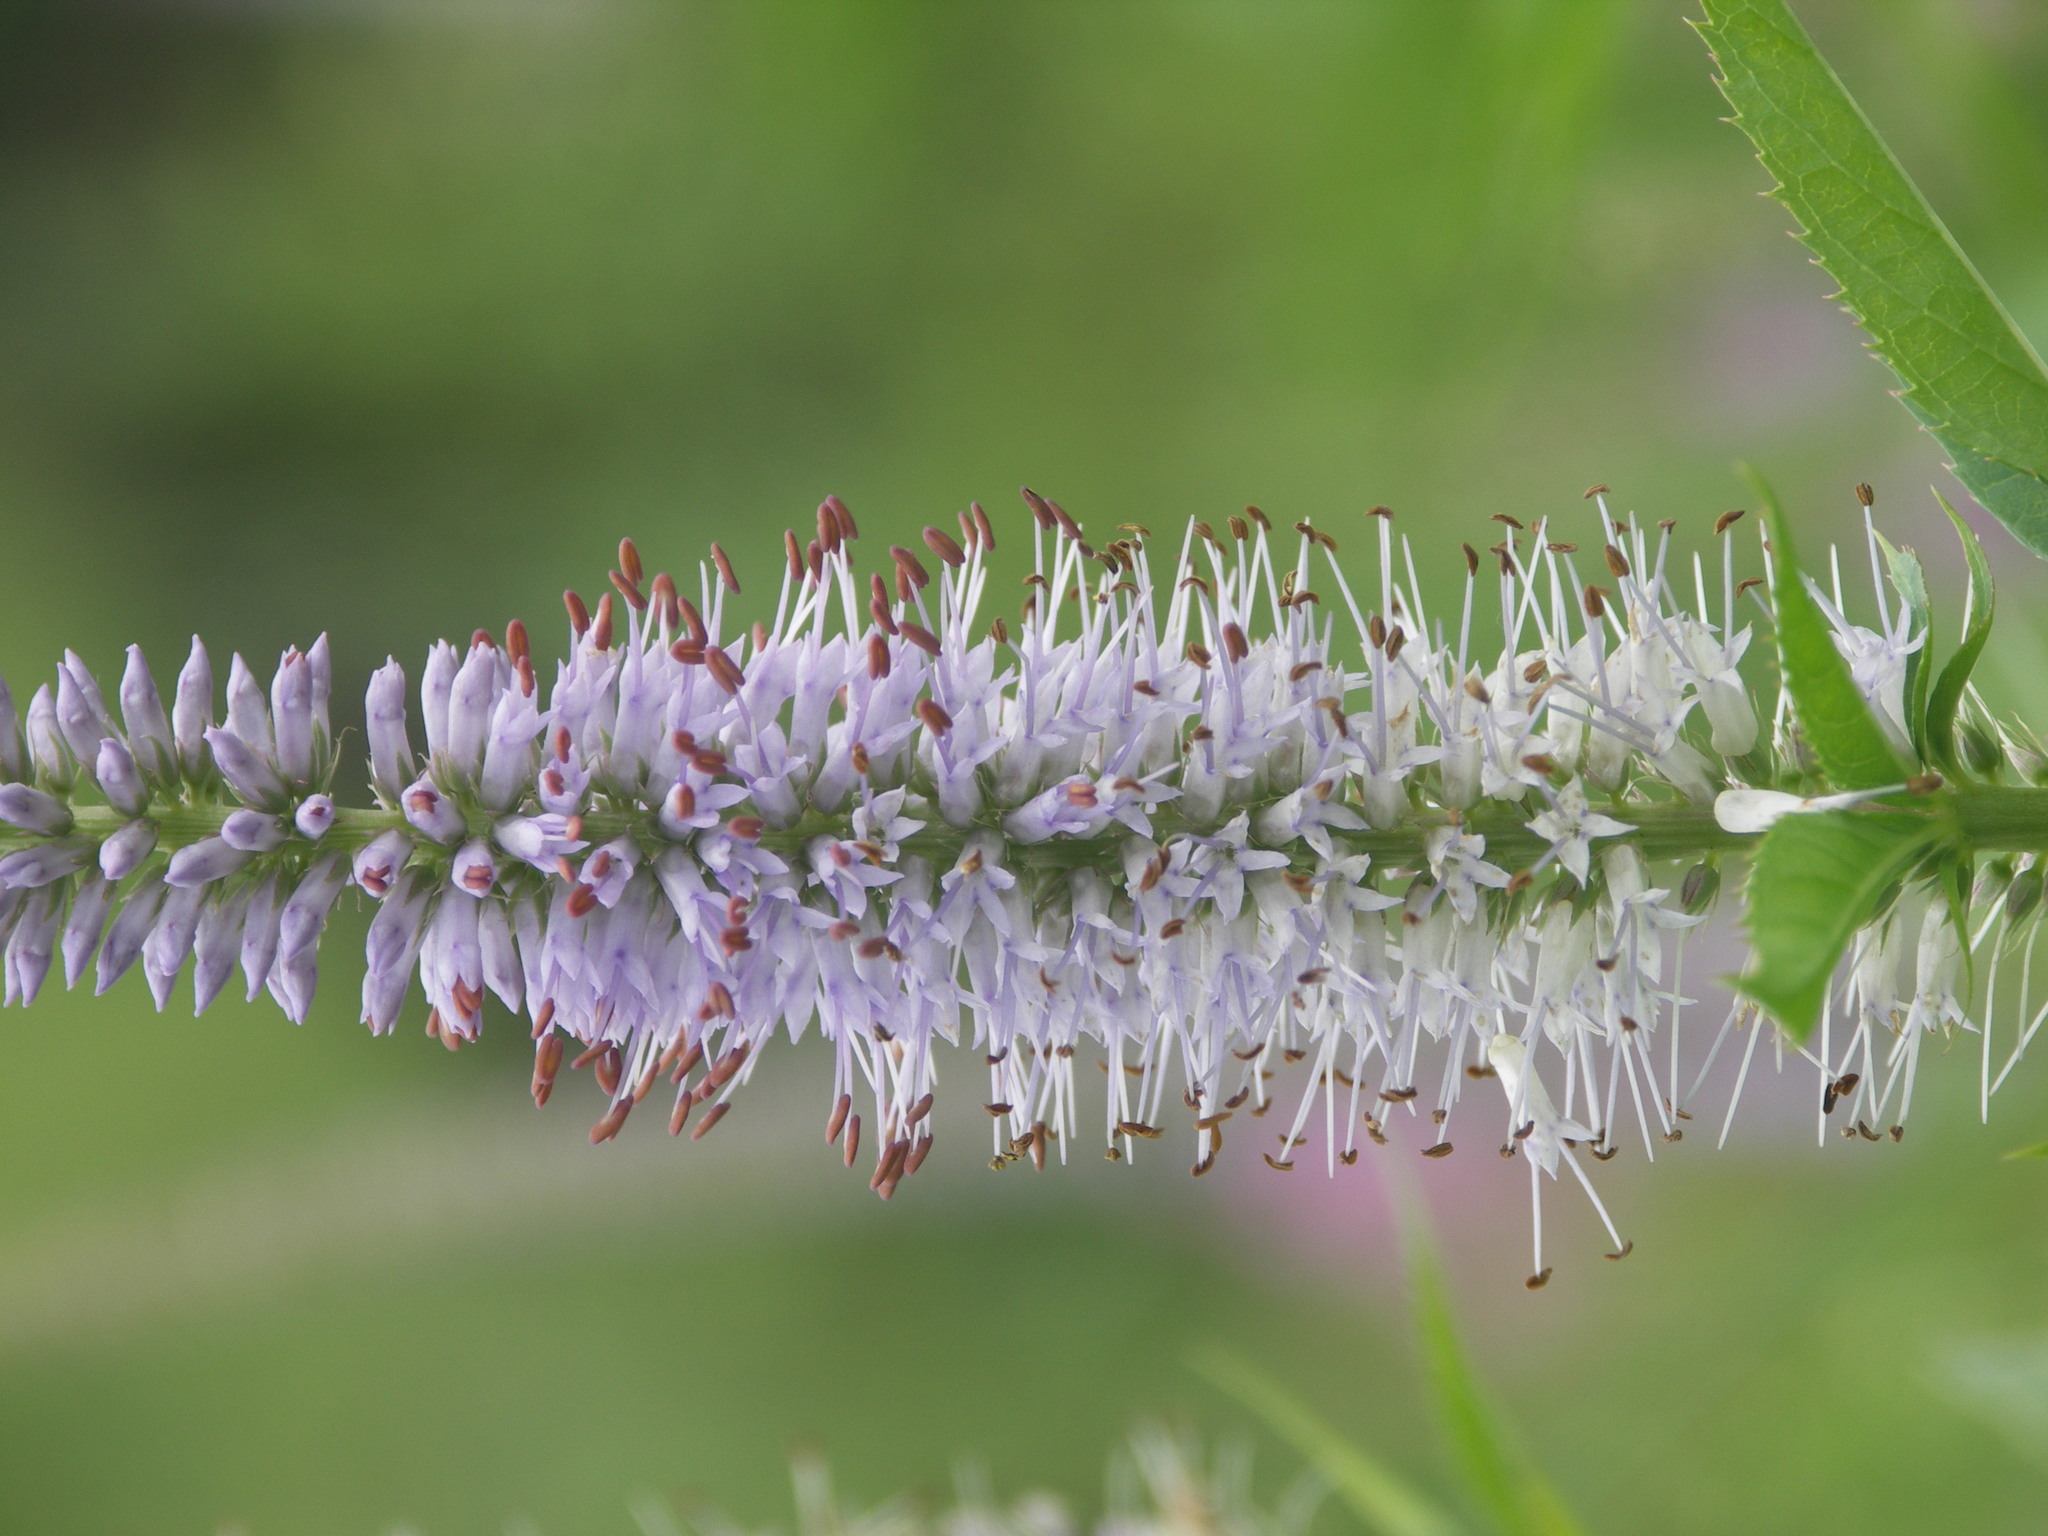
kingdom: Plantae
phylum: Tracheophyta
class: Magnoliopsida
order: Lamiales
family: Plantaginaceae
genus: Veronicastrum
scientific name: Veronicastrum sibiricum
